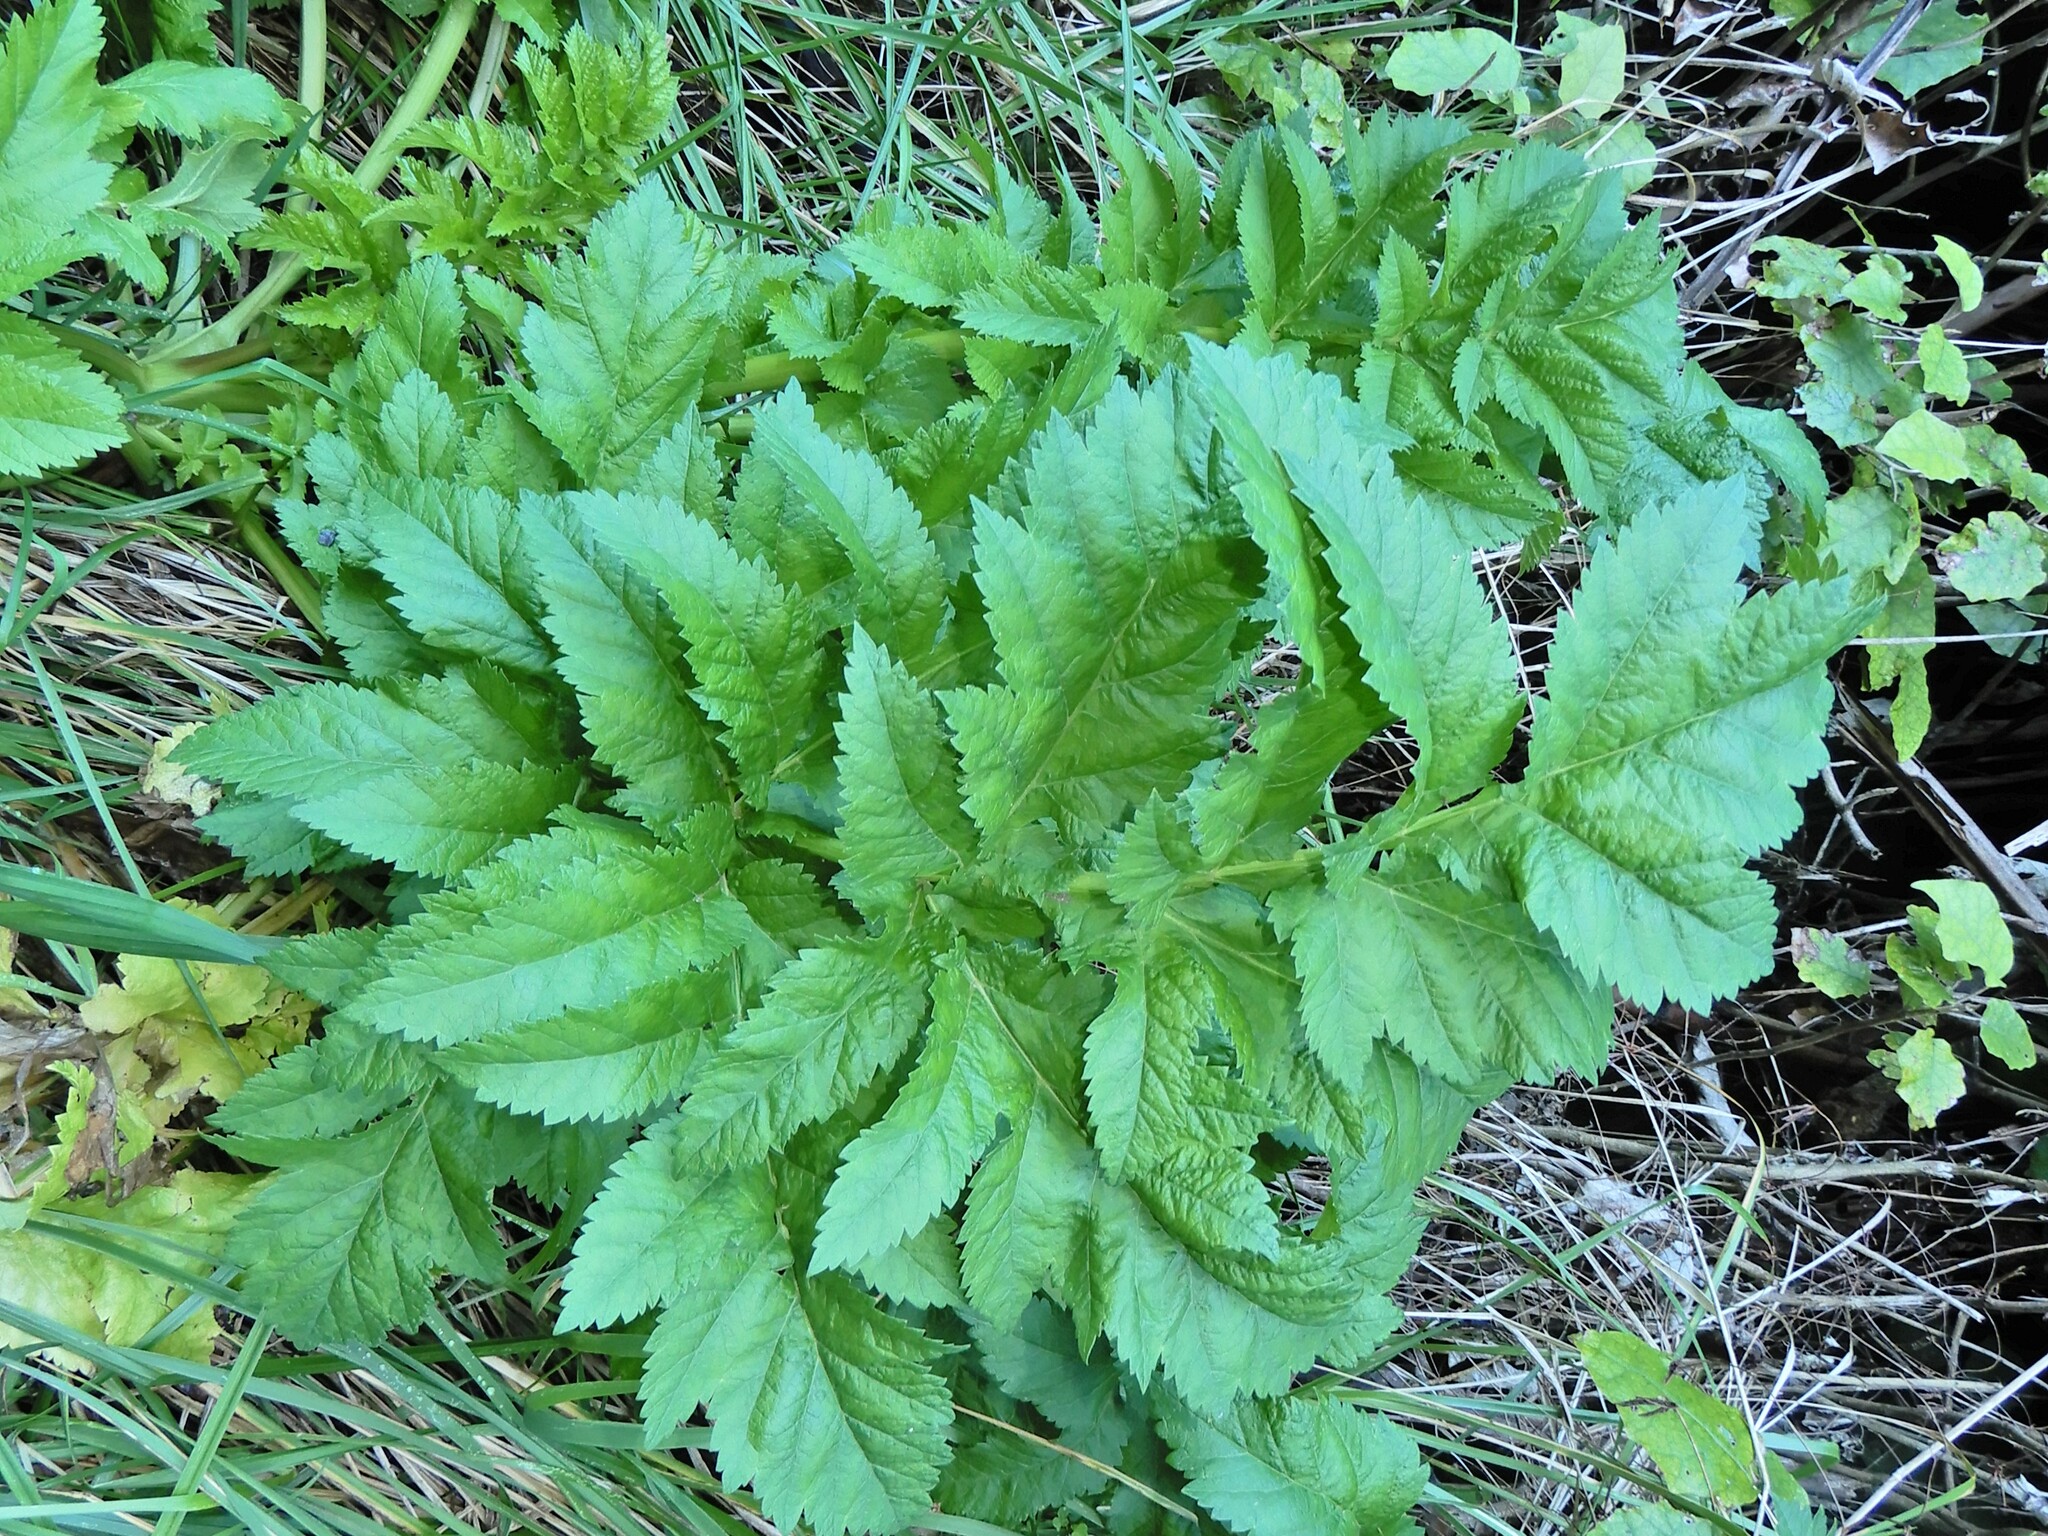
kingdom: Plantae
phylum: Tracheophyta
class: Magnoliopsida
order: Apiales
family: Apiaceae
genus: Pastinaca
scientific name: Pastinaca sativa
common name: Wild parsnip
